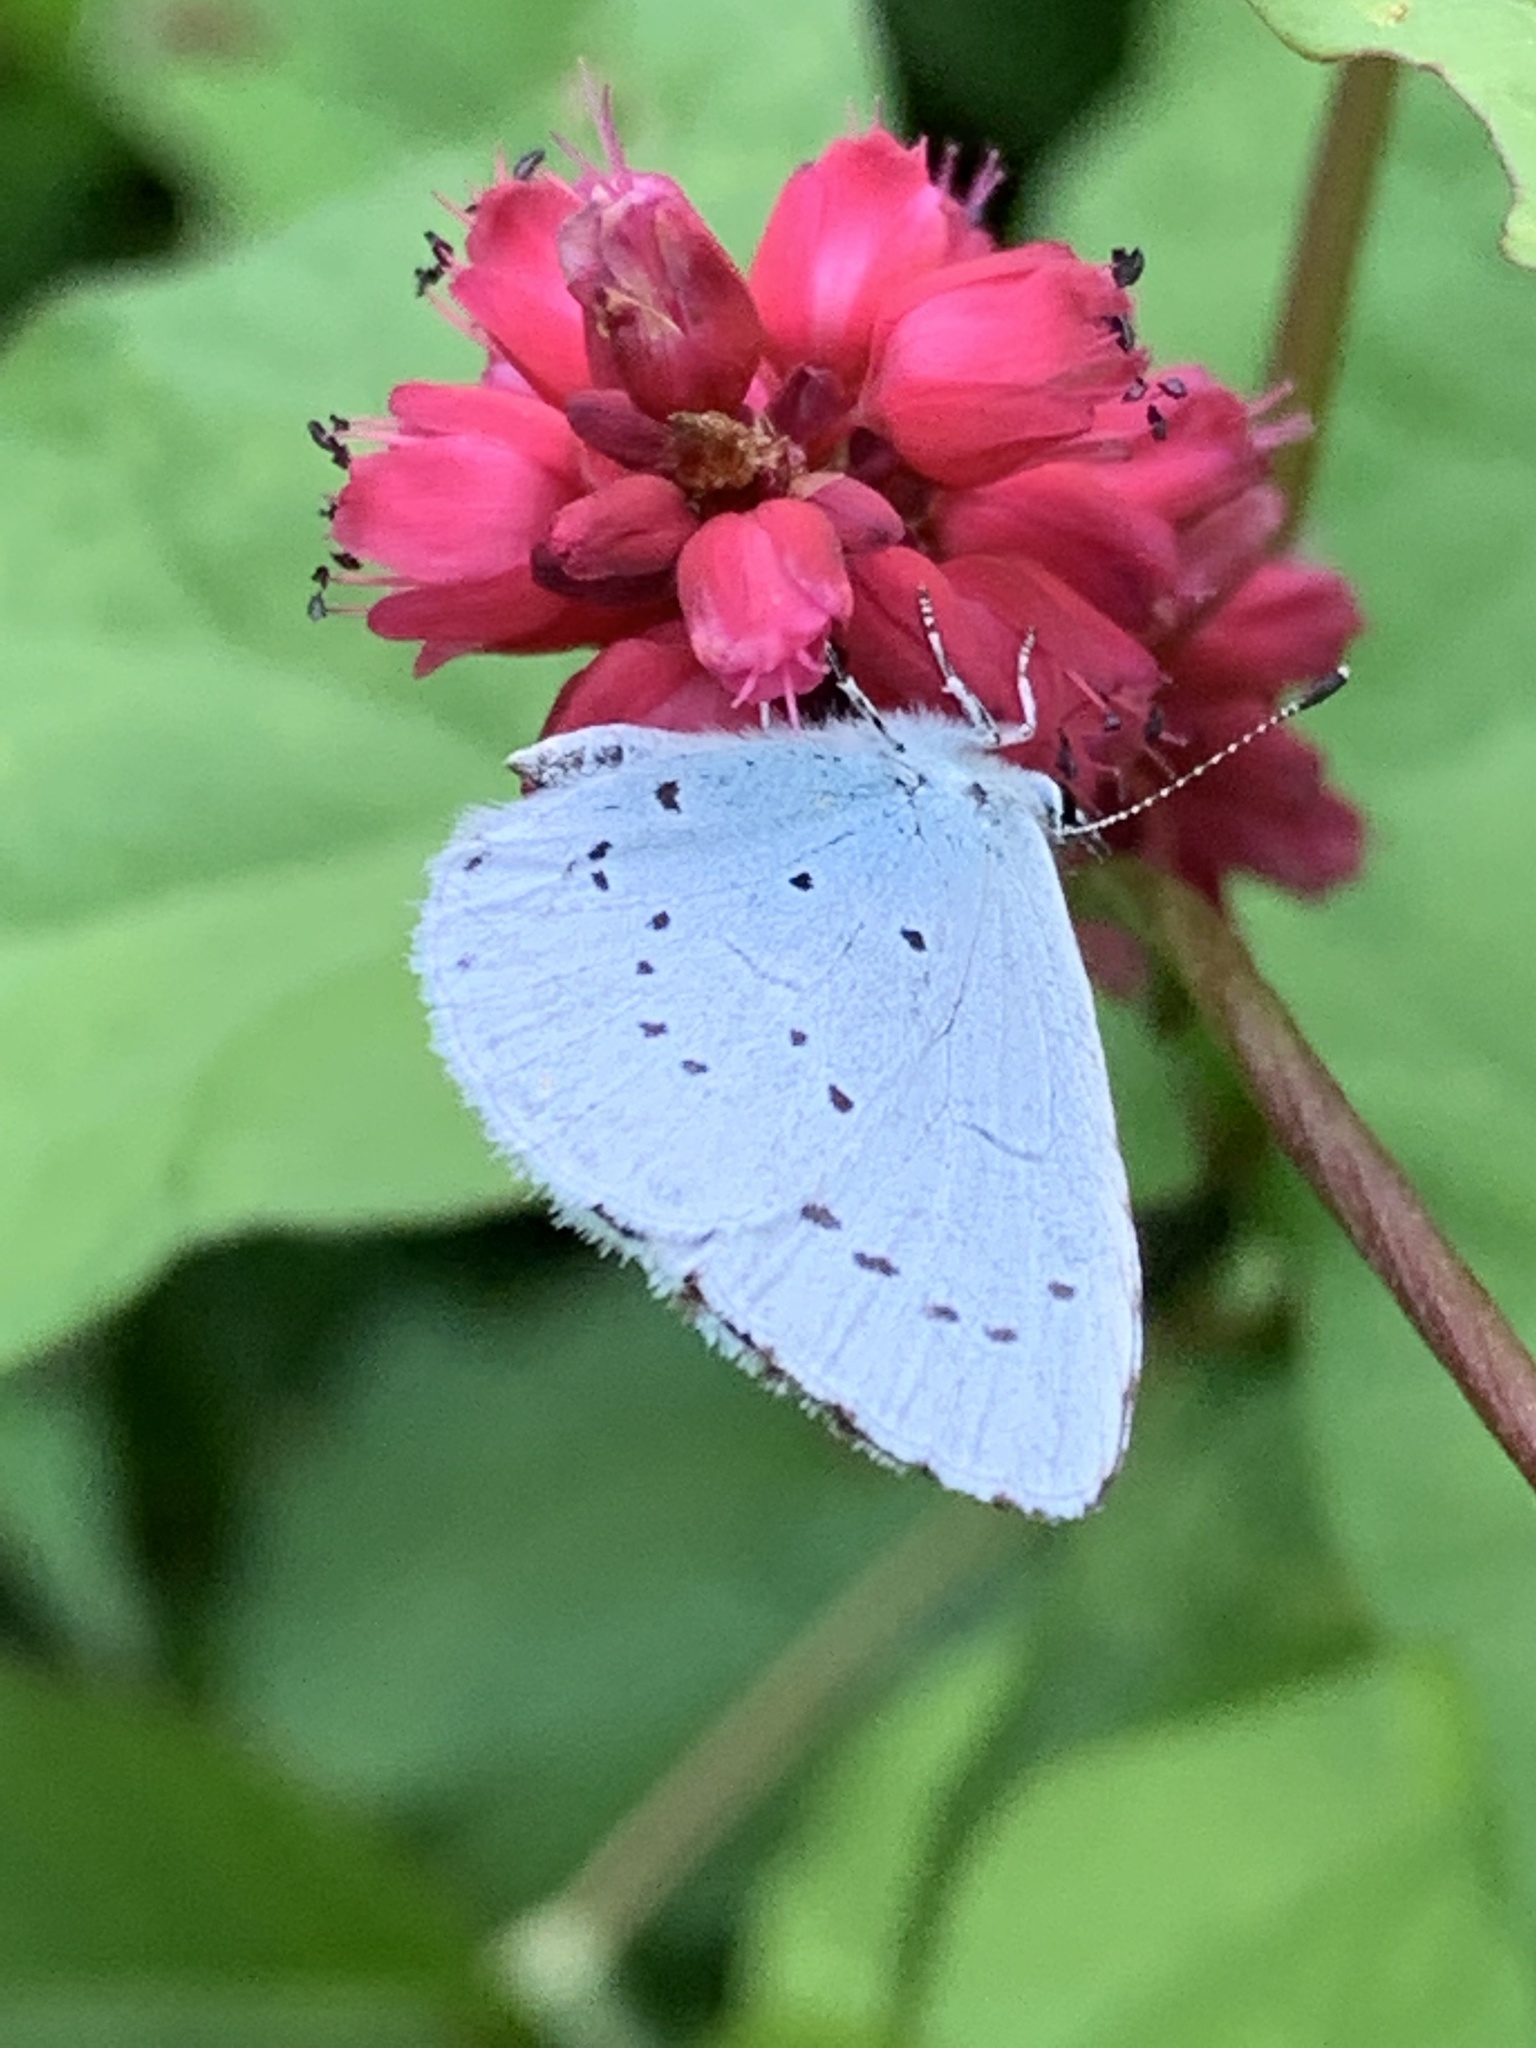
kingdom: Animalia
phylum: Arthropoda
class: Insecta
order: Lepidoptera
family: Lycaenidae
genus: Celastrina
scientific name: Celastrina argiolus
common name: Holly blue
